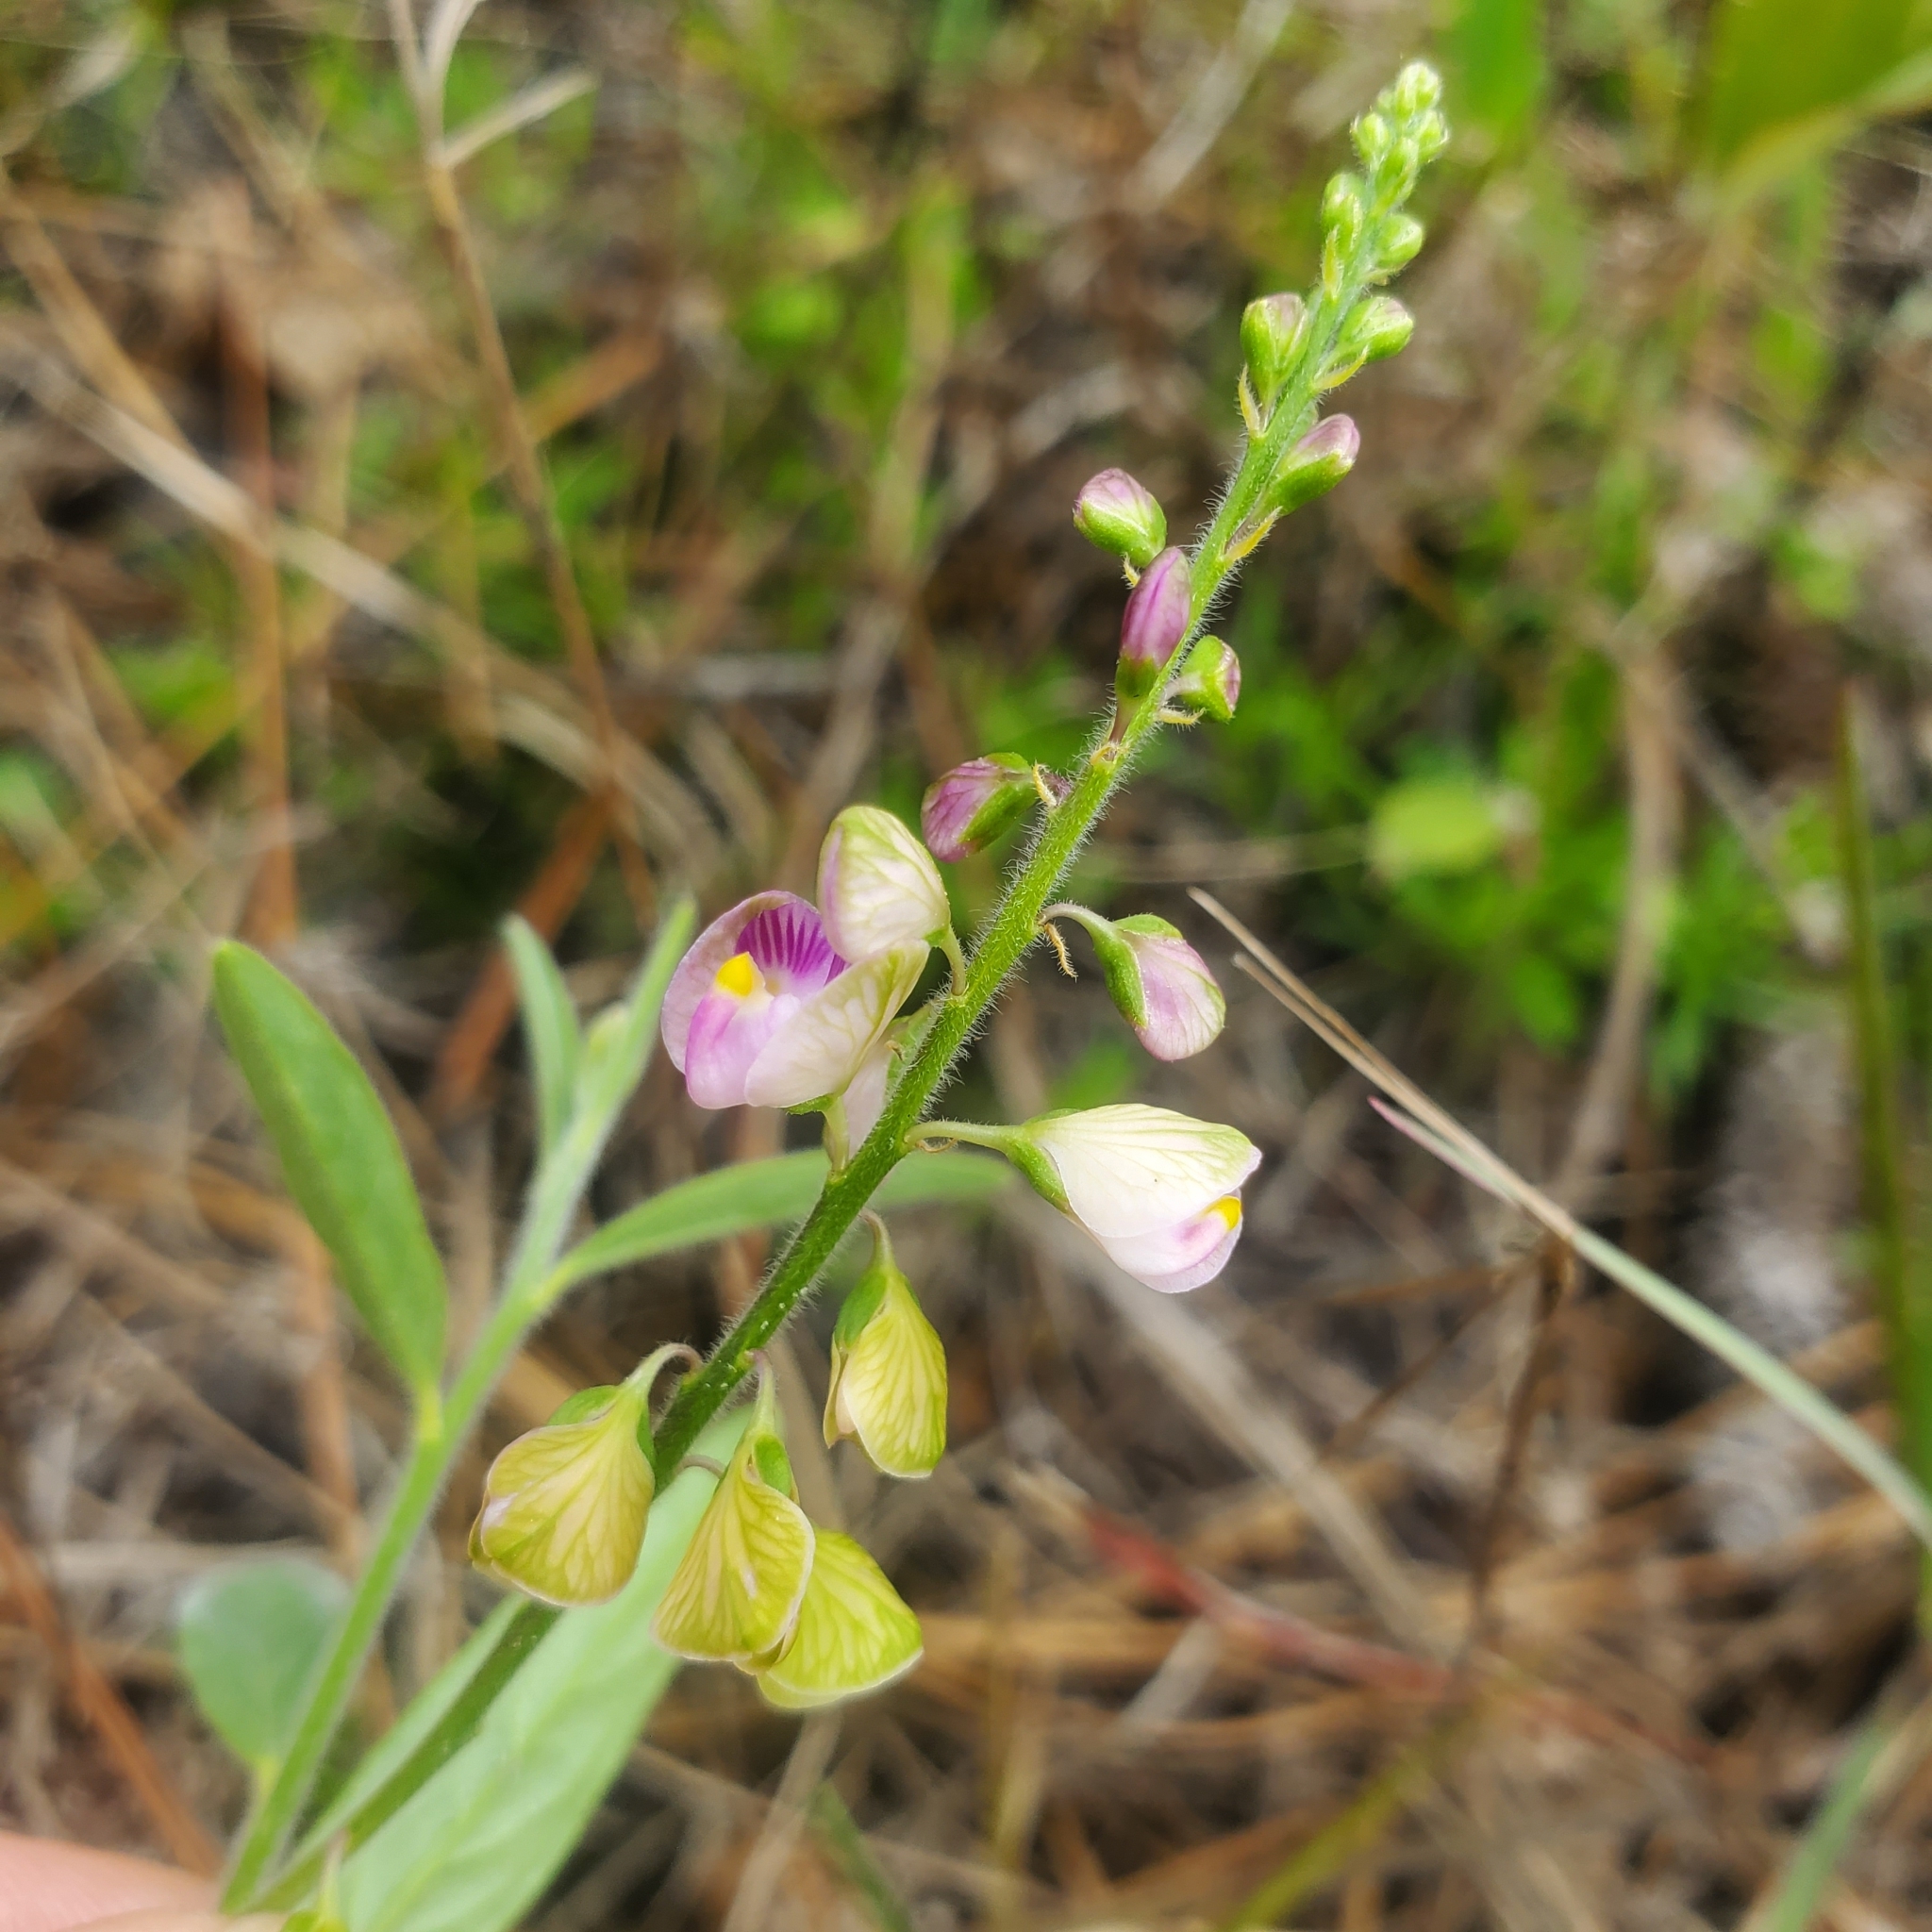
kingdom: Plantae
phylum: Tracheophyta
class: Magnoliopsida
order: Fabales
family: Polygalaceae
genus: Asemeia
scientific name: Asemeia grandiflora
